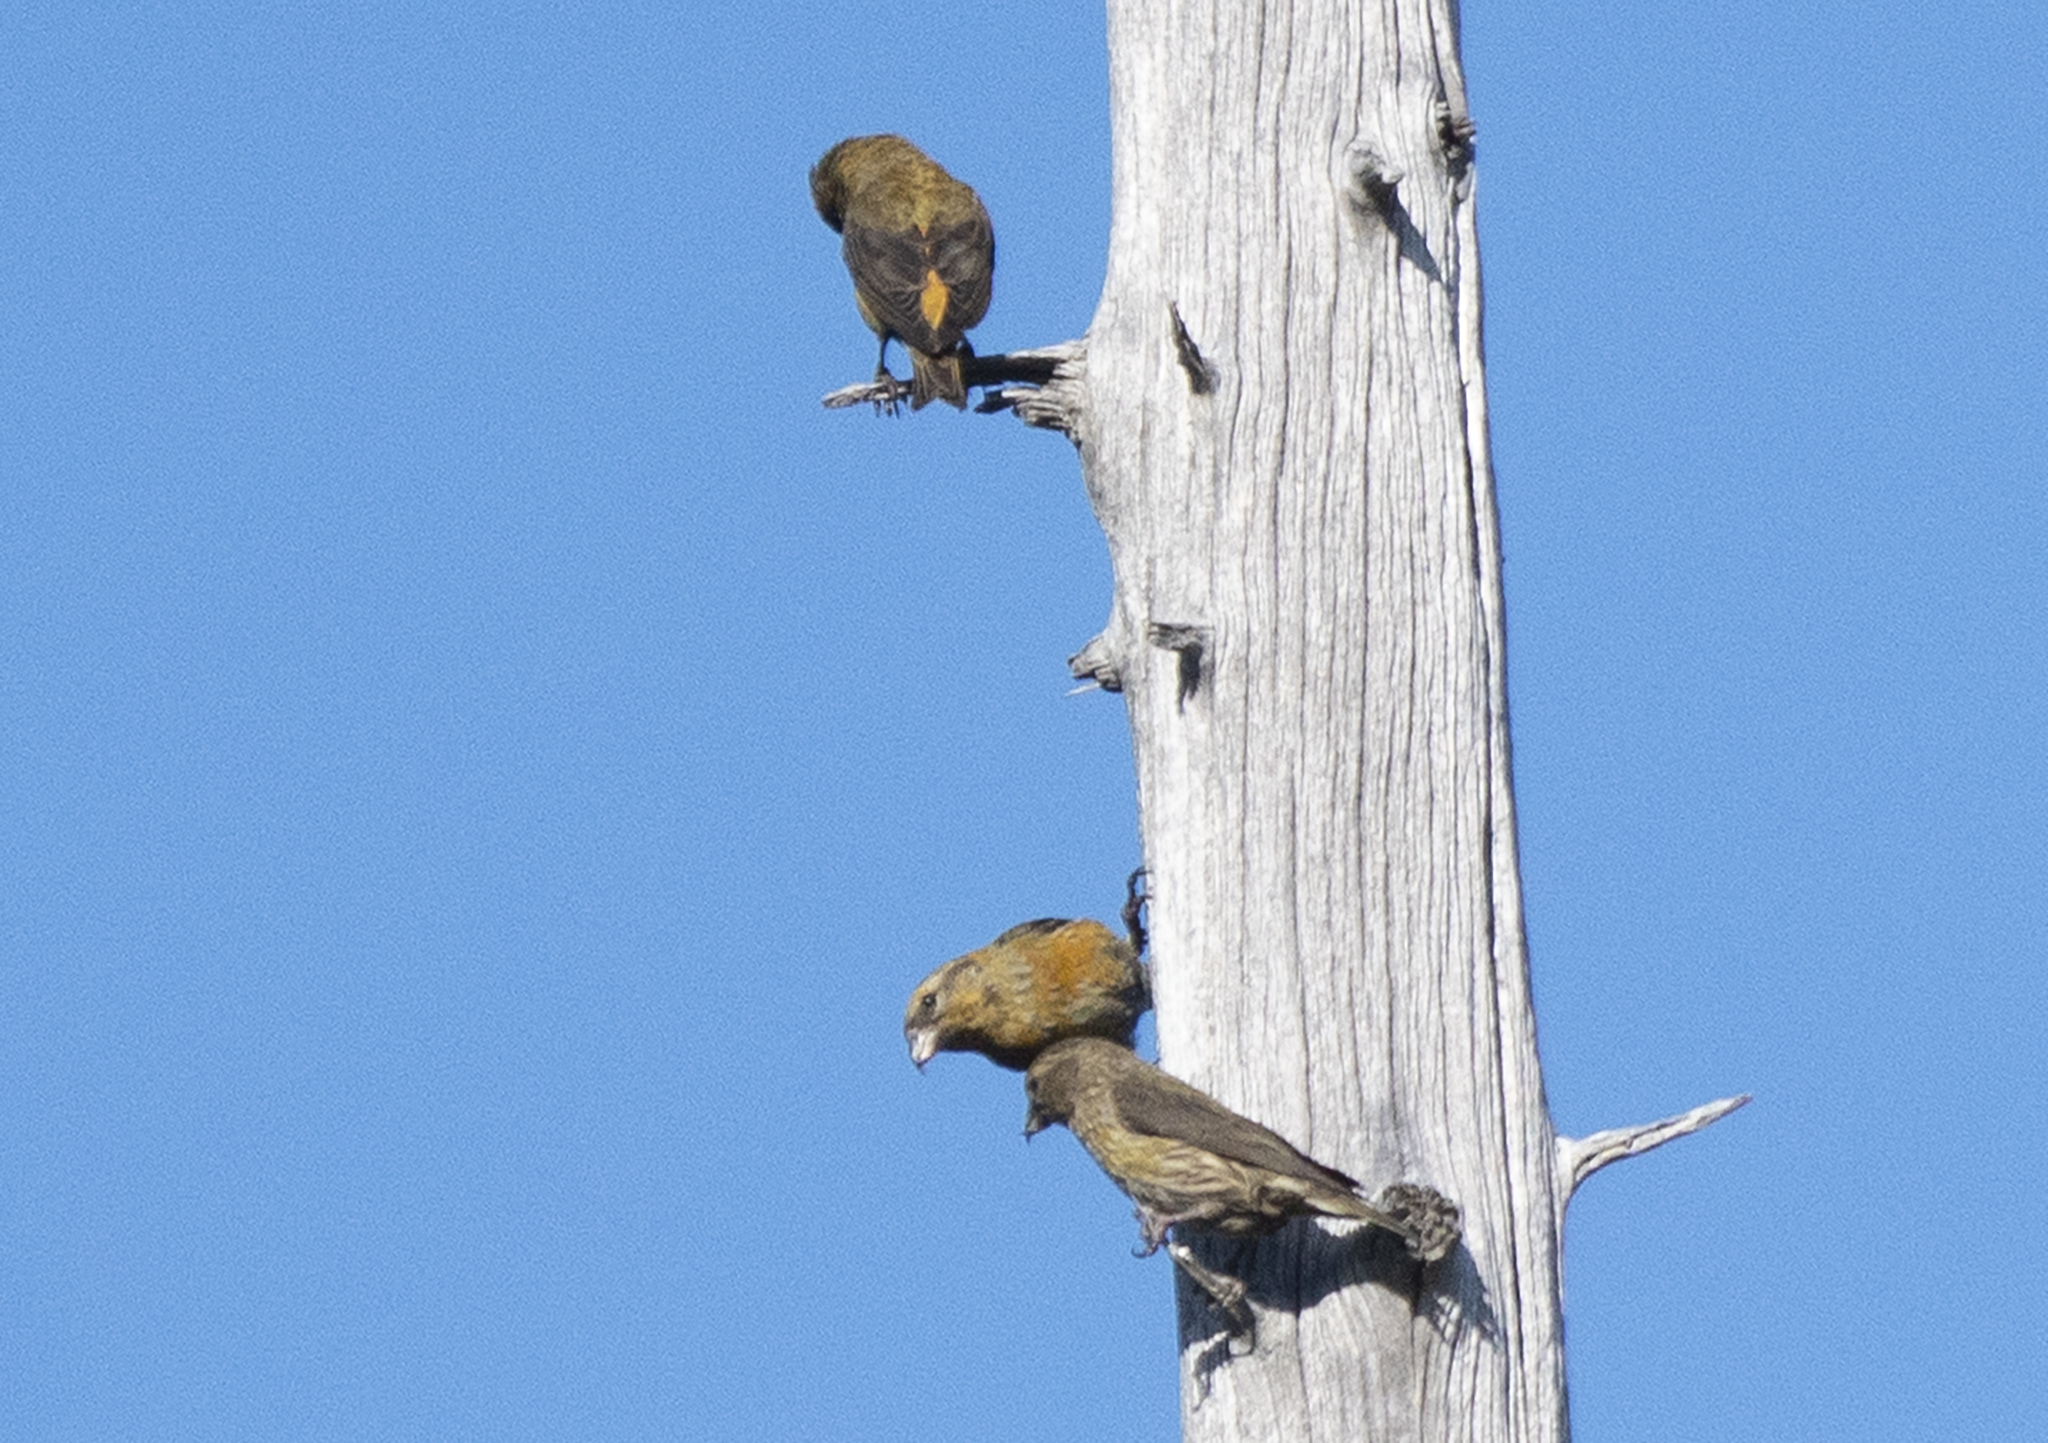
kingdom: Animalia
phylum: Chordata
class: Aves
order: Passeriformes
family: Fringillidae
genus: Loxia
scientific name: Loxia curvirostra
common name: Red crossbill
